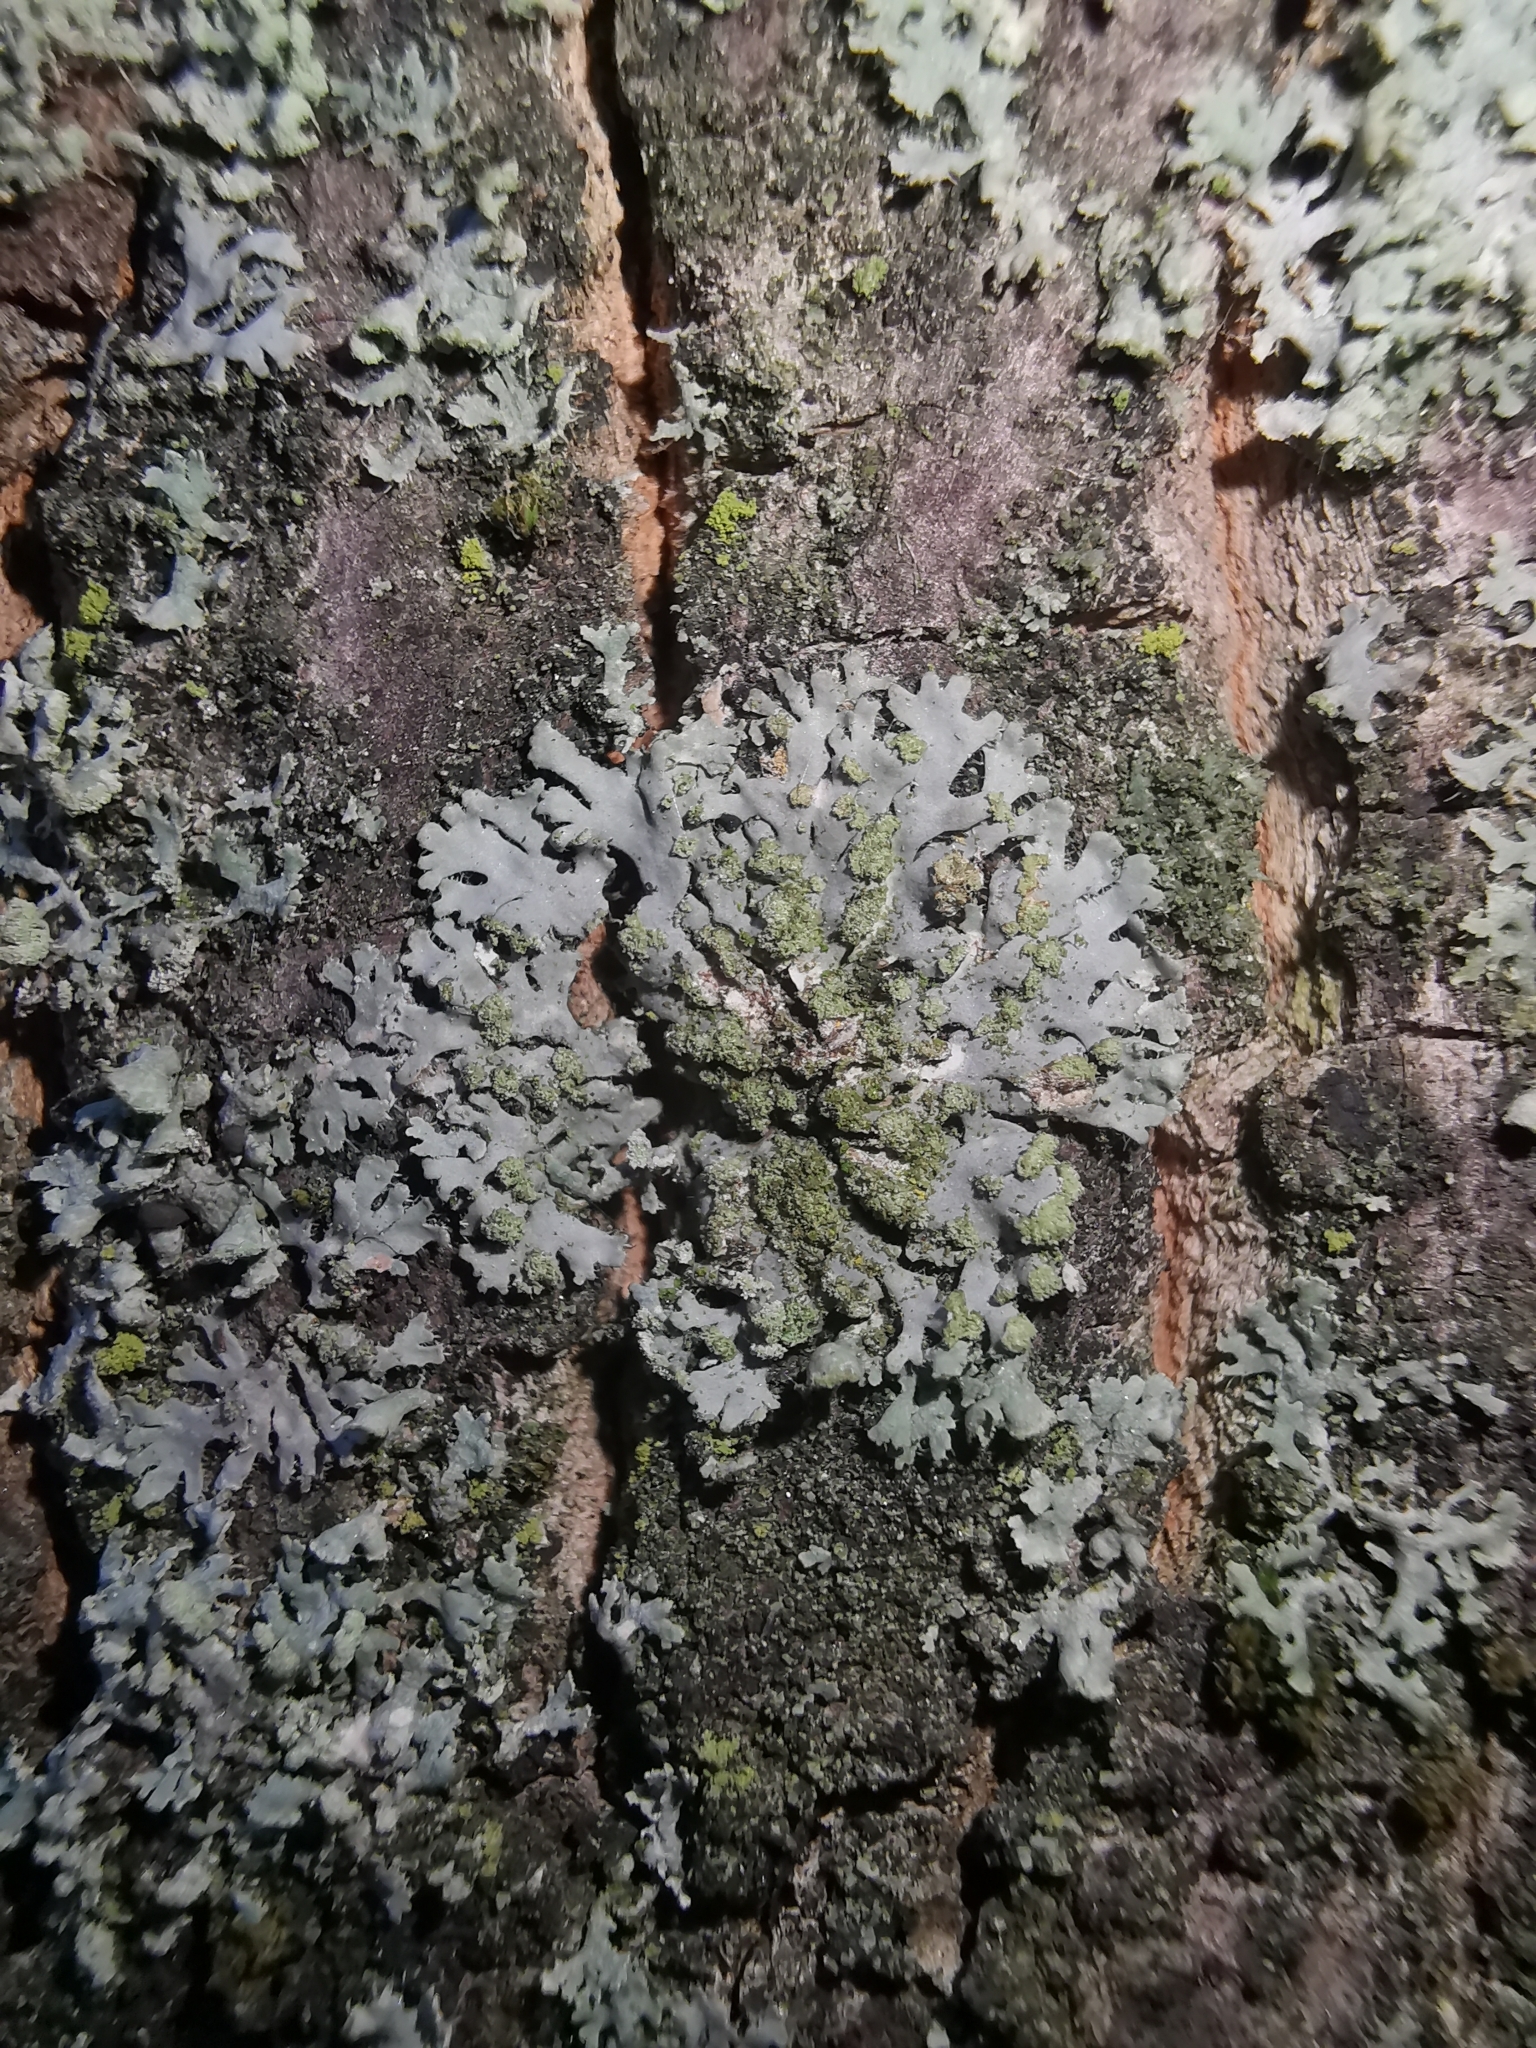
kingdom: Fungi
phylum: Ascomycota
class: Lecanoromycetes
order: Caliciales
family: Physciaceae
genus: Phaeophyscia
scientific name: Phaeophyscia orbicularis
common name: Mealy shadow lichen
